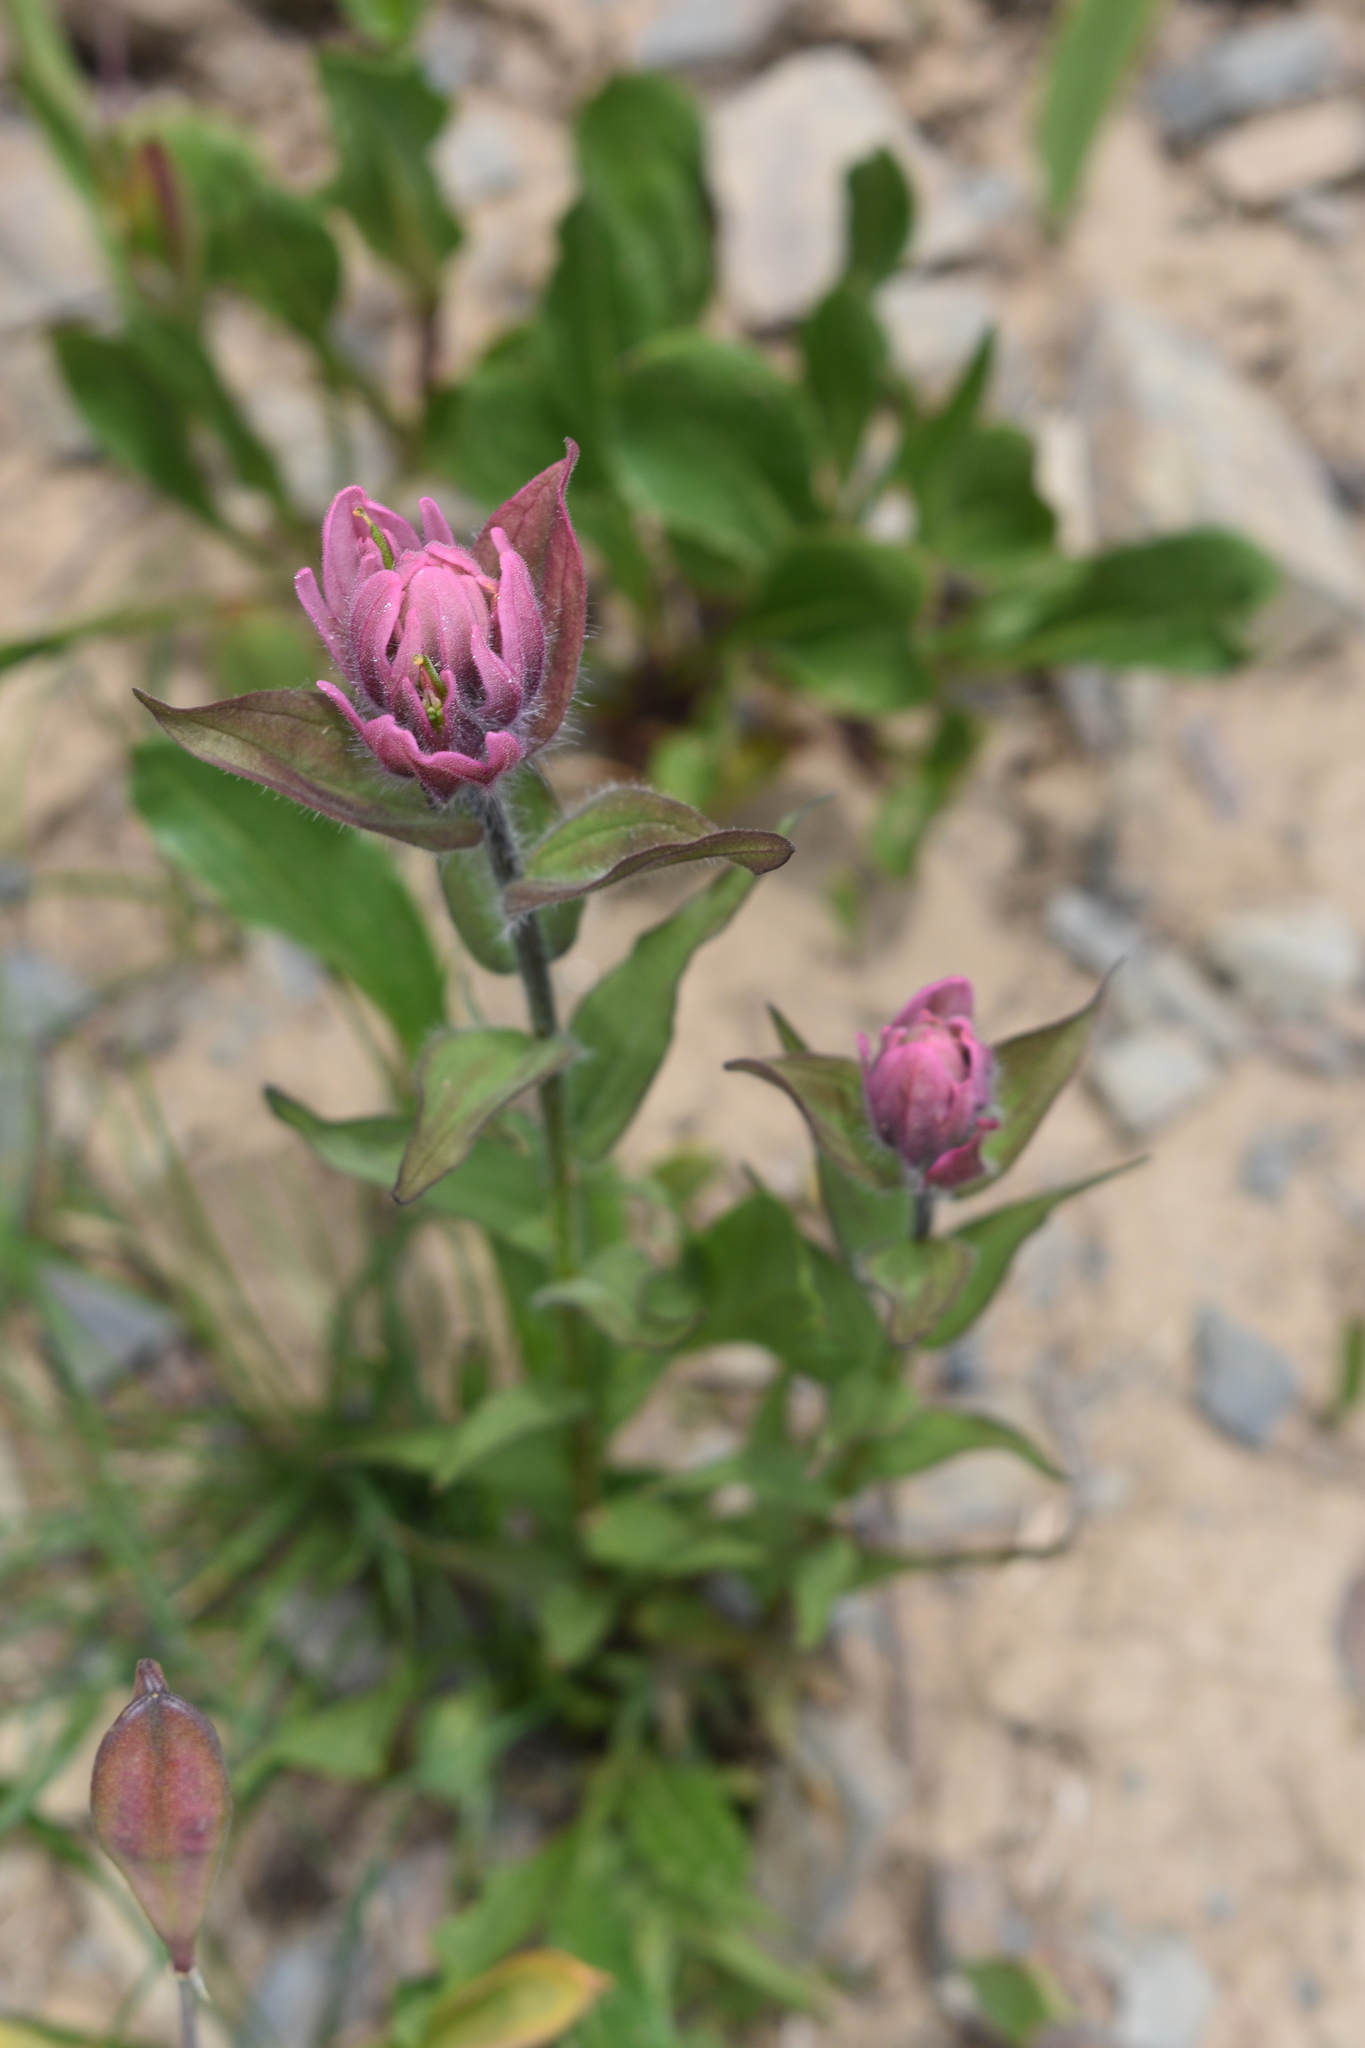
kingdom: Plantae
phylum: Tracheophyta
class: Magnoliopsida
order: Lamiales
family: Orobanchaceae
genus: Castilleja
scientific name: Castilleja rhexifolia
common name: Rocky mountain paintbrush
